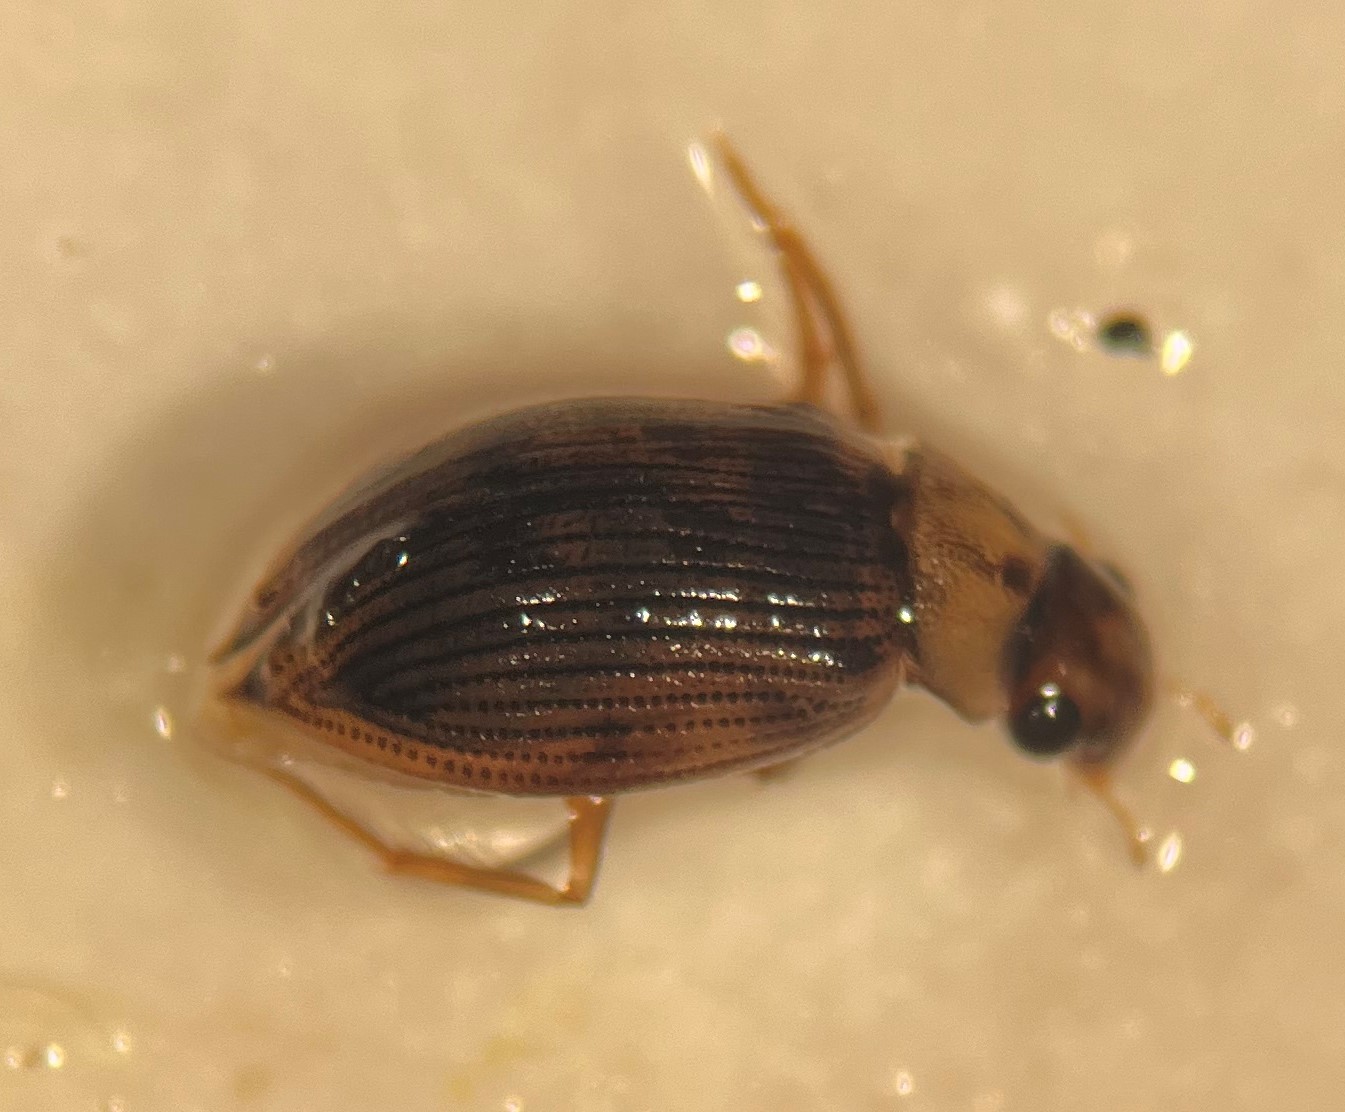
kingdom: Animalia
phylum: Arthropoda
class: Insecta
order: Coleoptera
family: Hydrophilidae
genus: Berosus
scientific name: Berosus aculeatus
